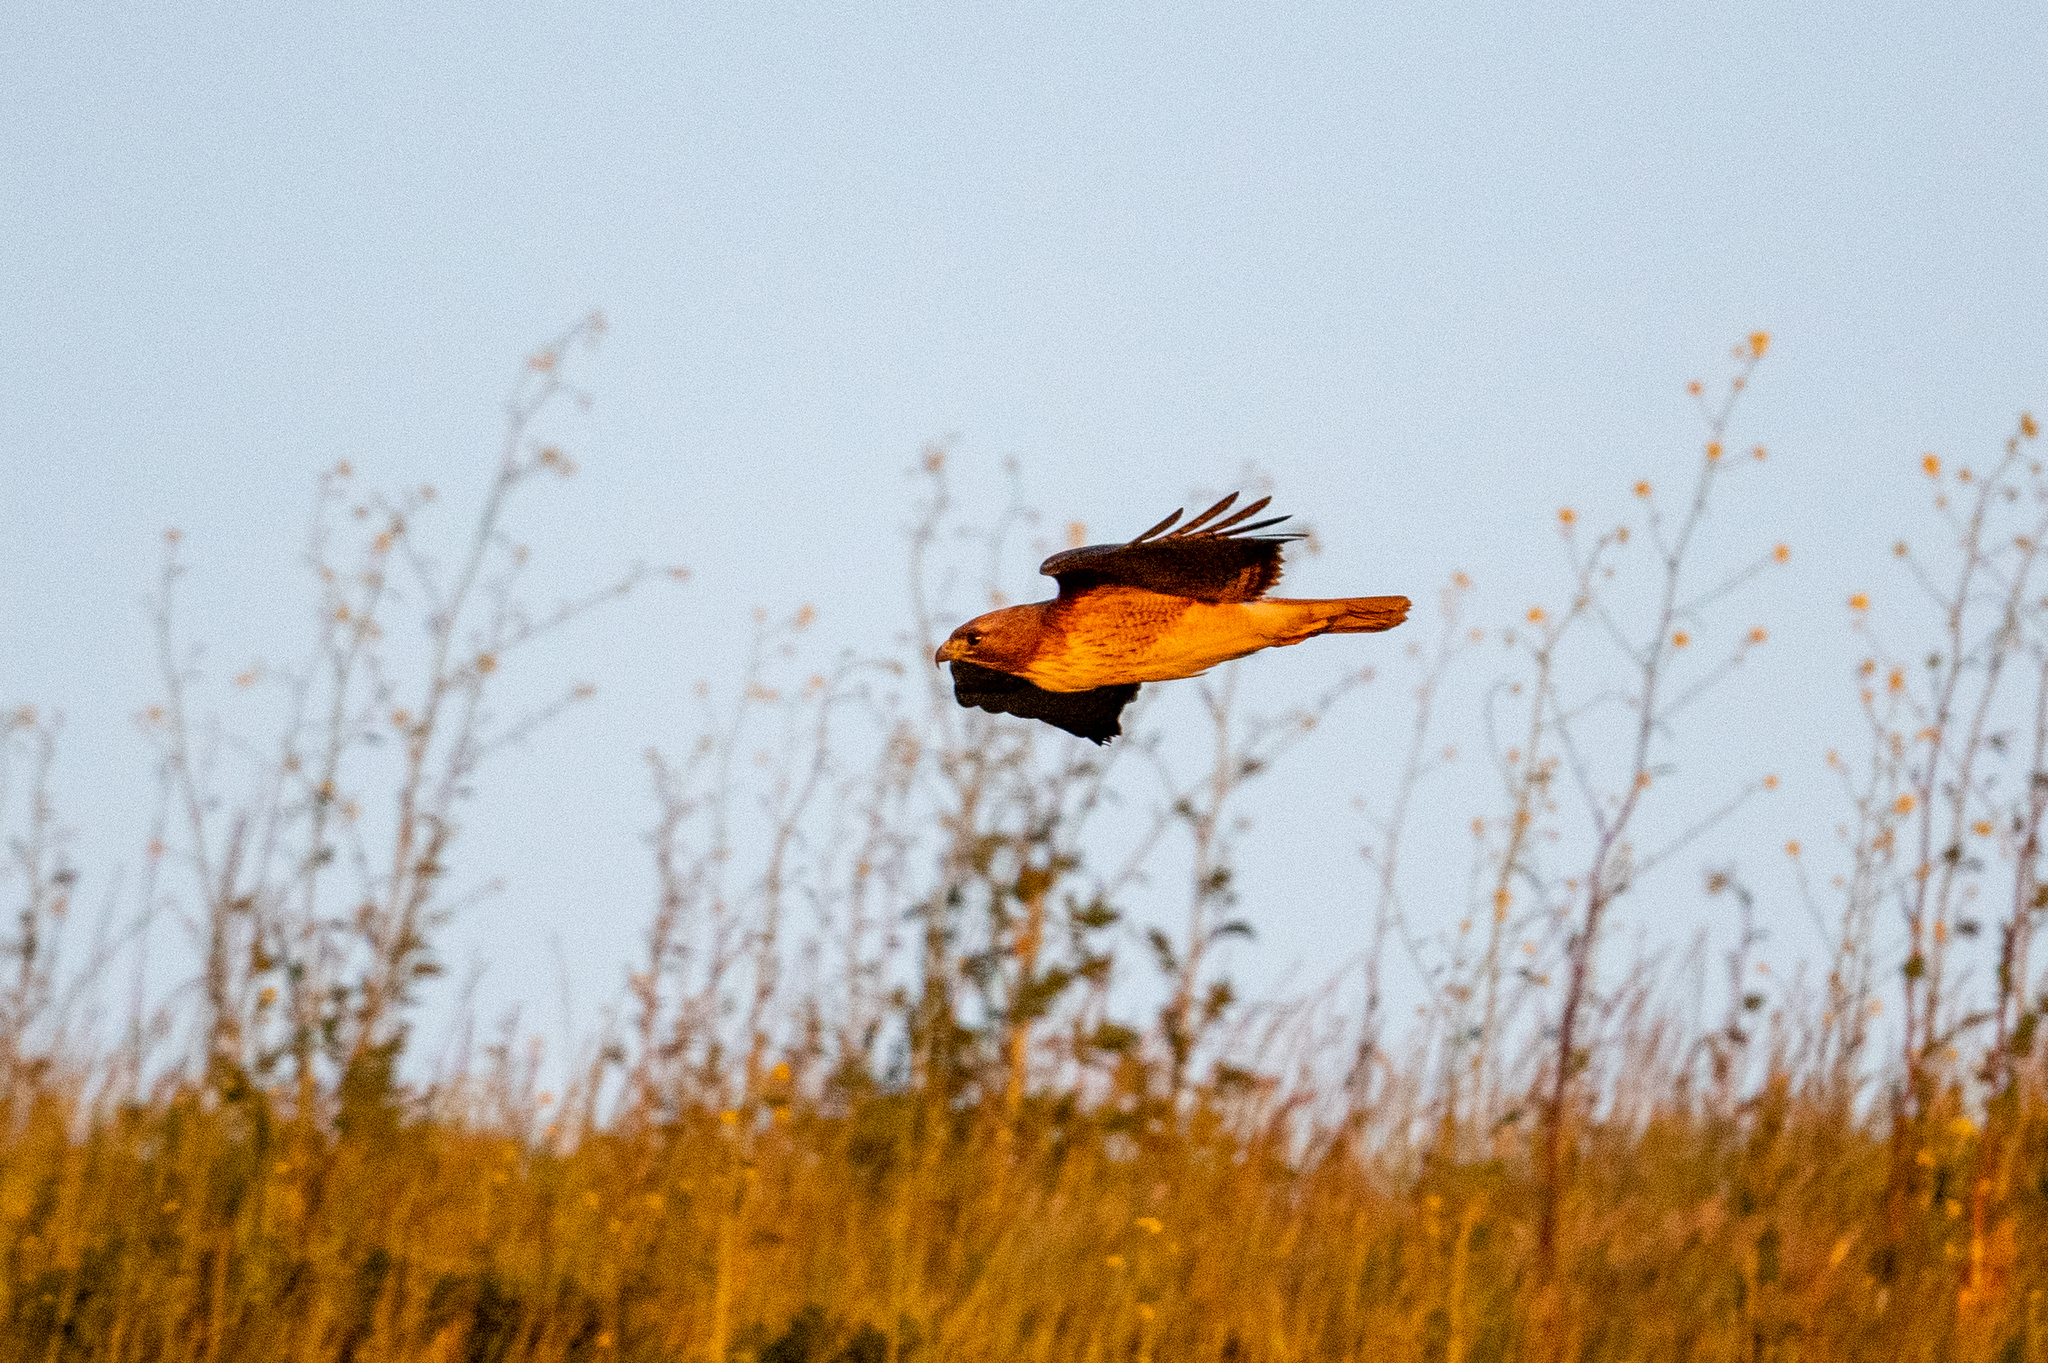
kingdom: Animalia
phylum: Chordata
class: Aves
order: Accipitriformes
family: Accipitridae
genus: Buteo
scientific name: Buteo jamaicensis
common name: Red-tailed hawk
